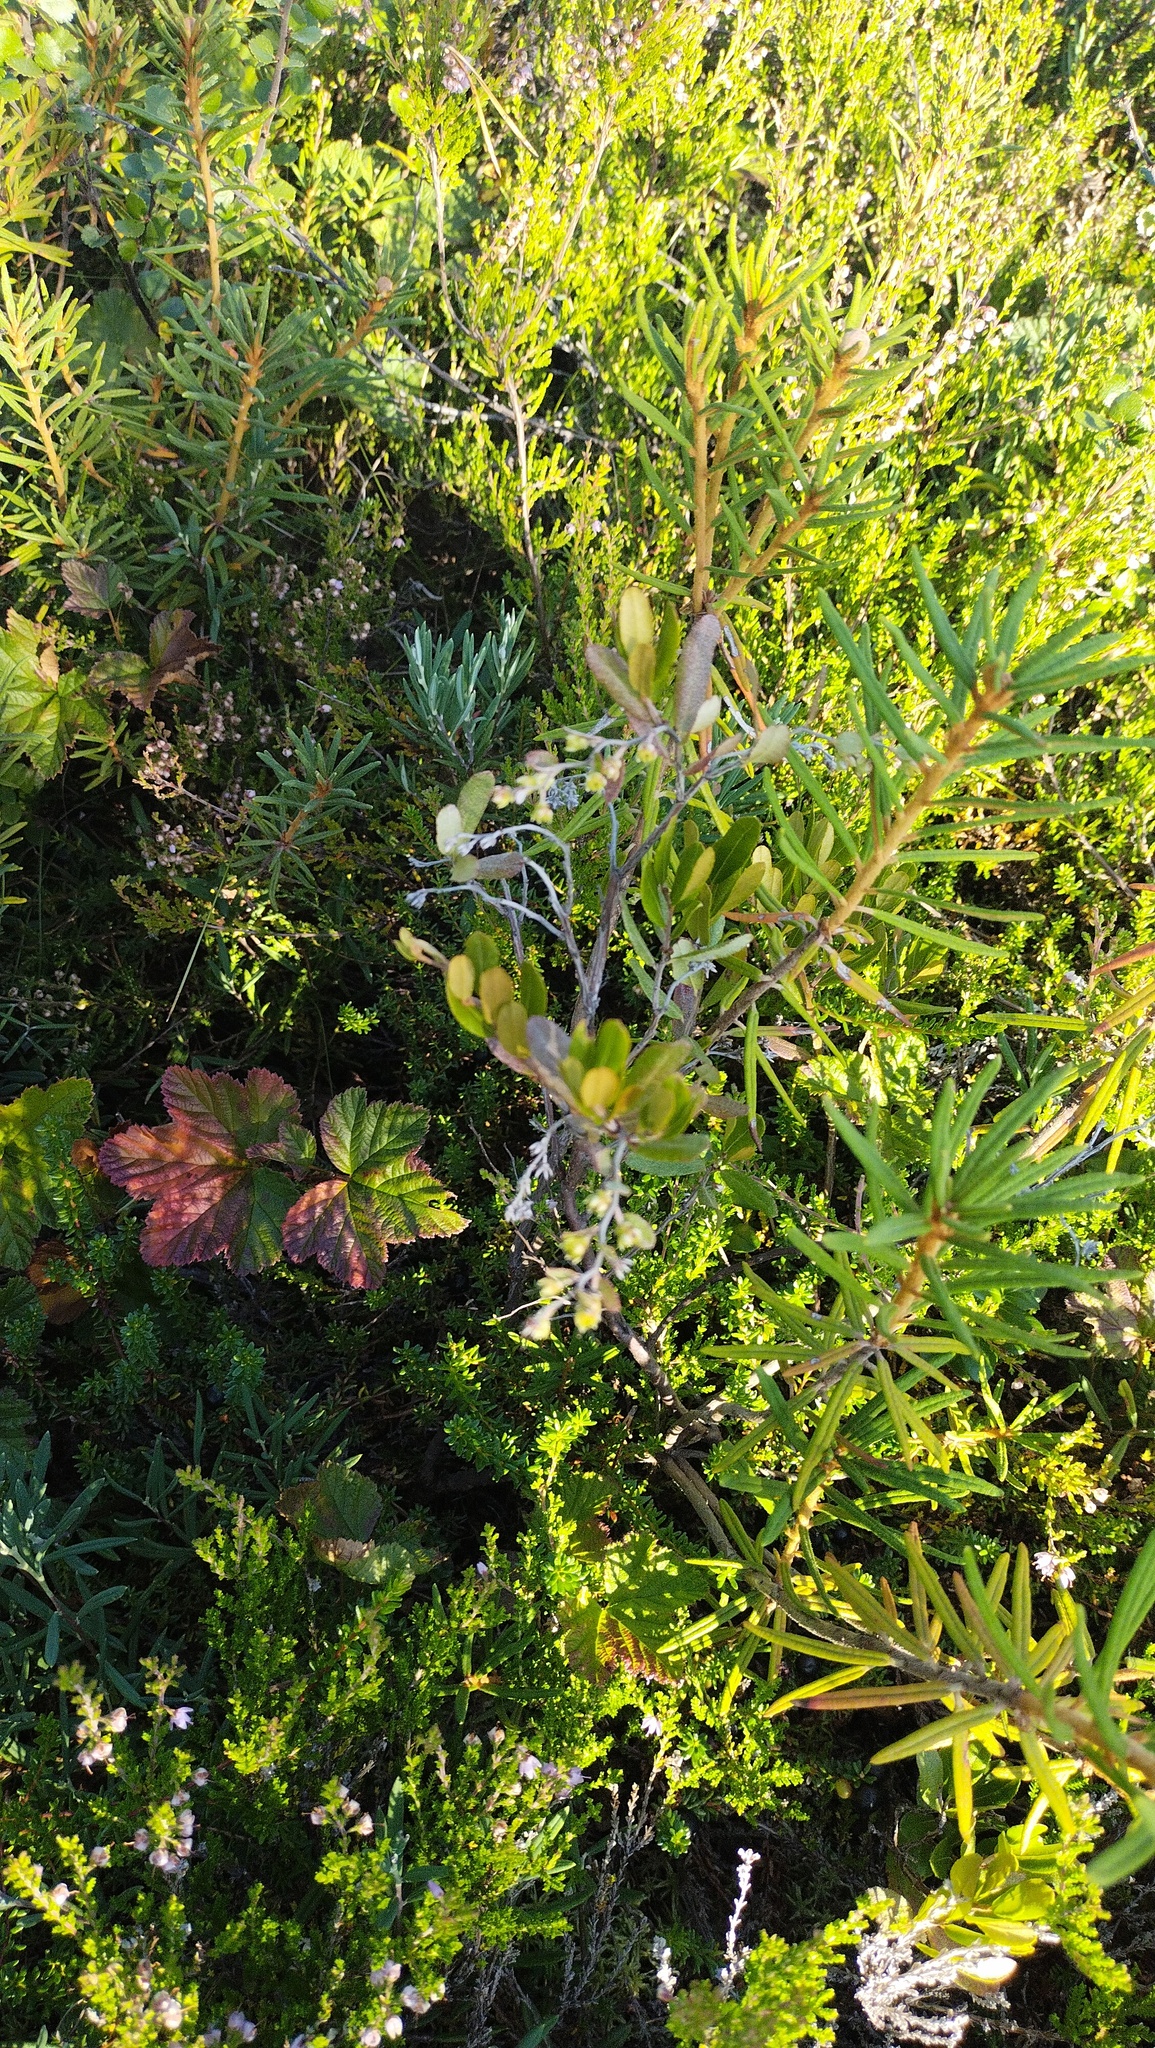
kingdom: Plantae
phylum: Tracheophyta
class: Magnoliopsida
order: Ericales
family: Ericaceae
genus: Chamaedaphne
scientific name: Chamaedaphne calyculata
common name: Leatherleaf
